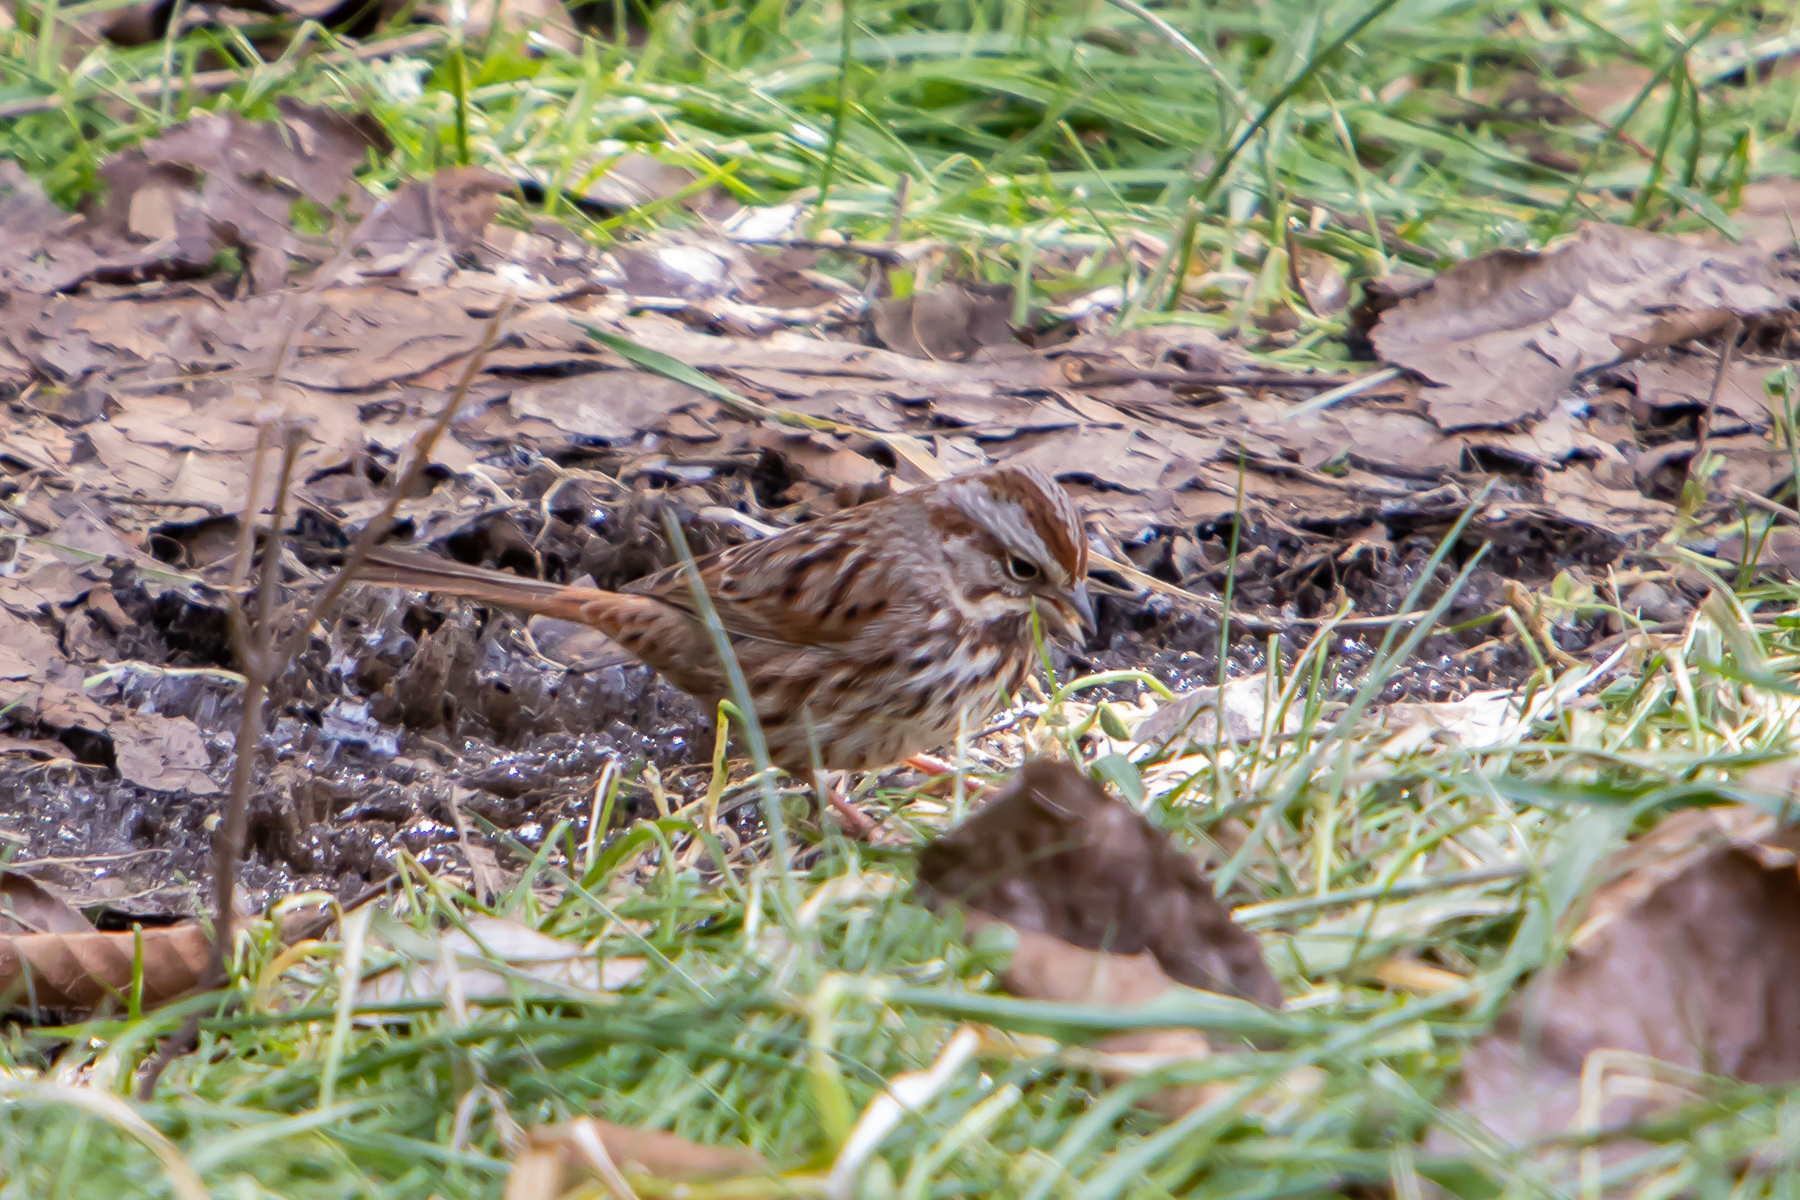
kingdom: Animalia
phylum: Chordata
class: Aves
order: Passeriformes
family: Passerellidae
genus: Melospiza
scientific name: Melospiza melodia
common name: Song sparrow
